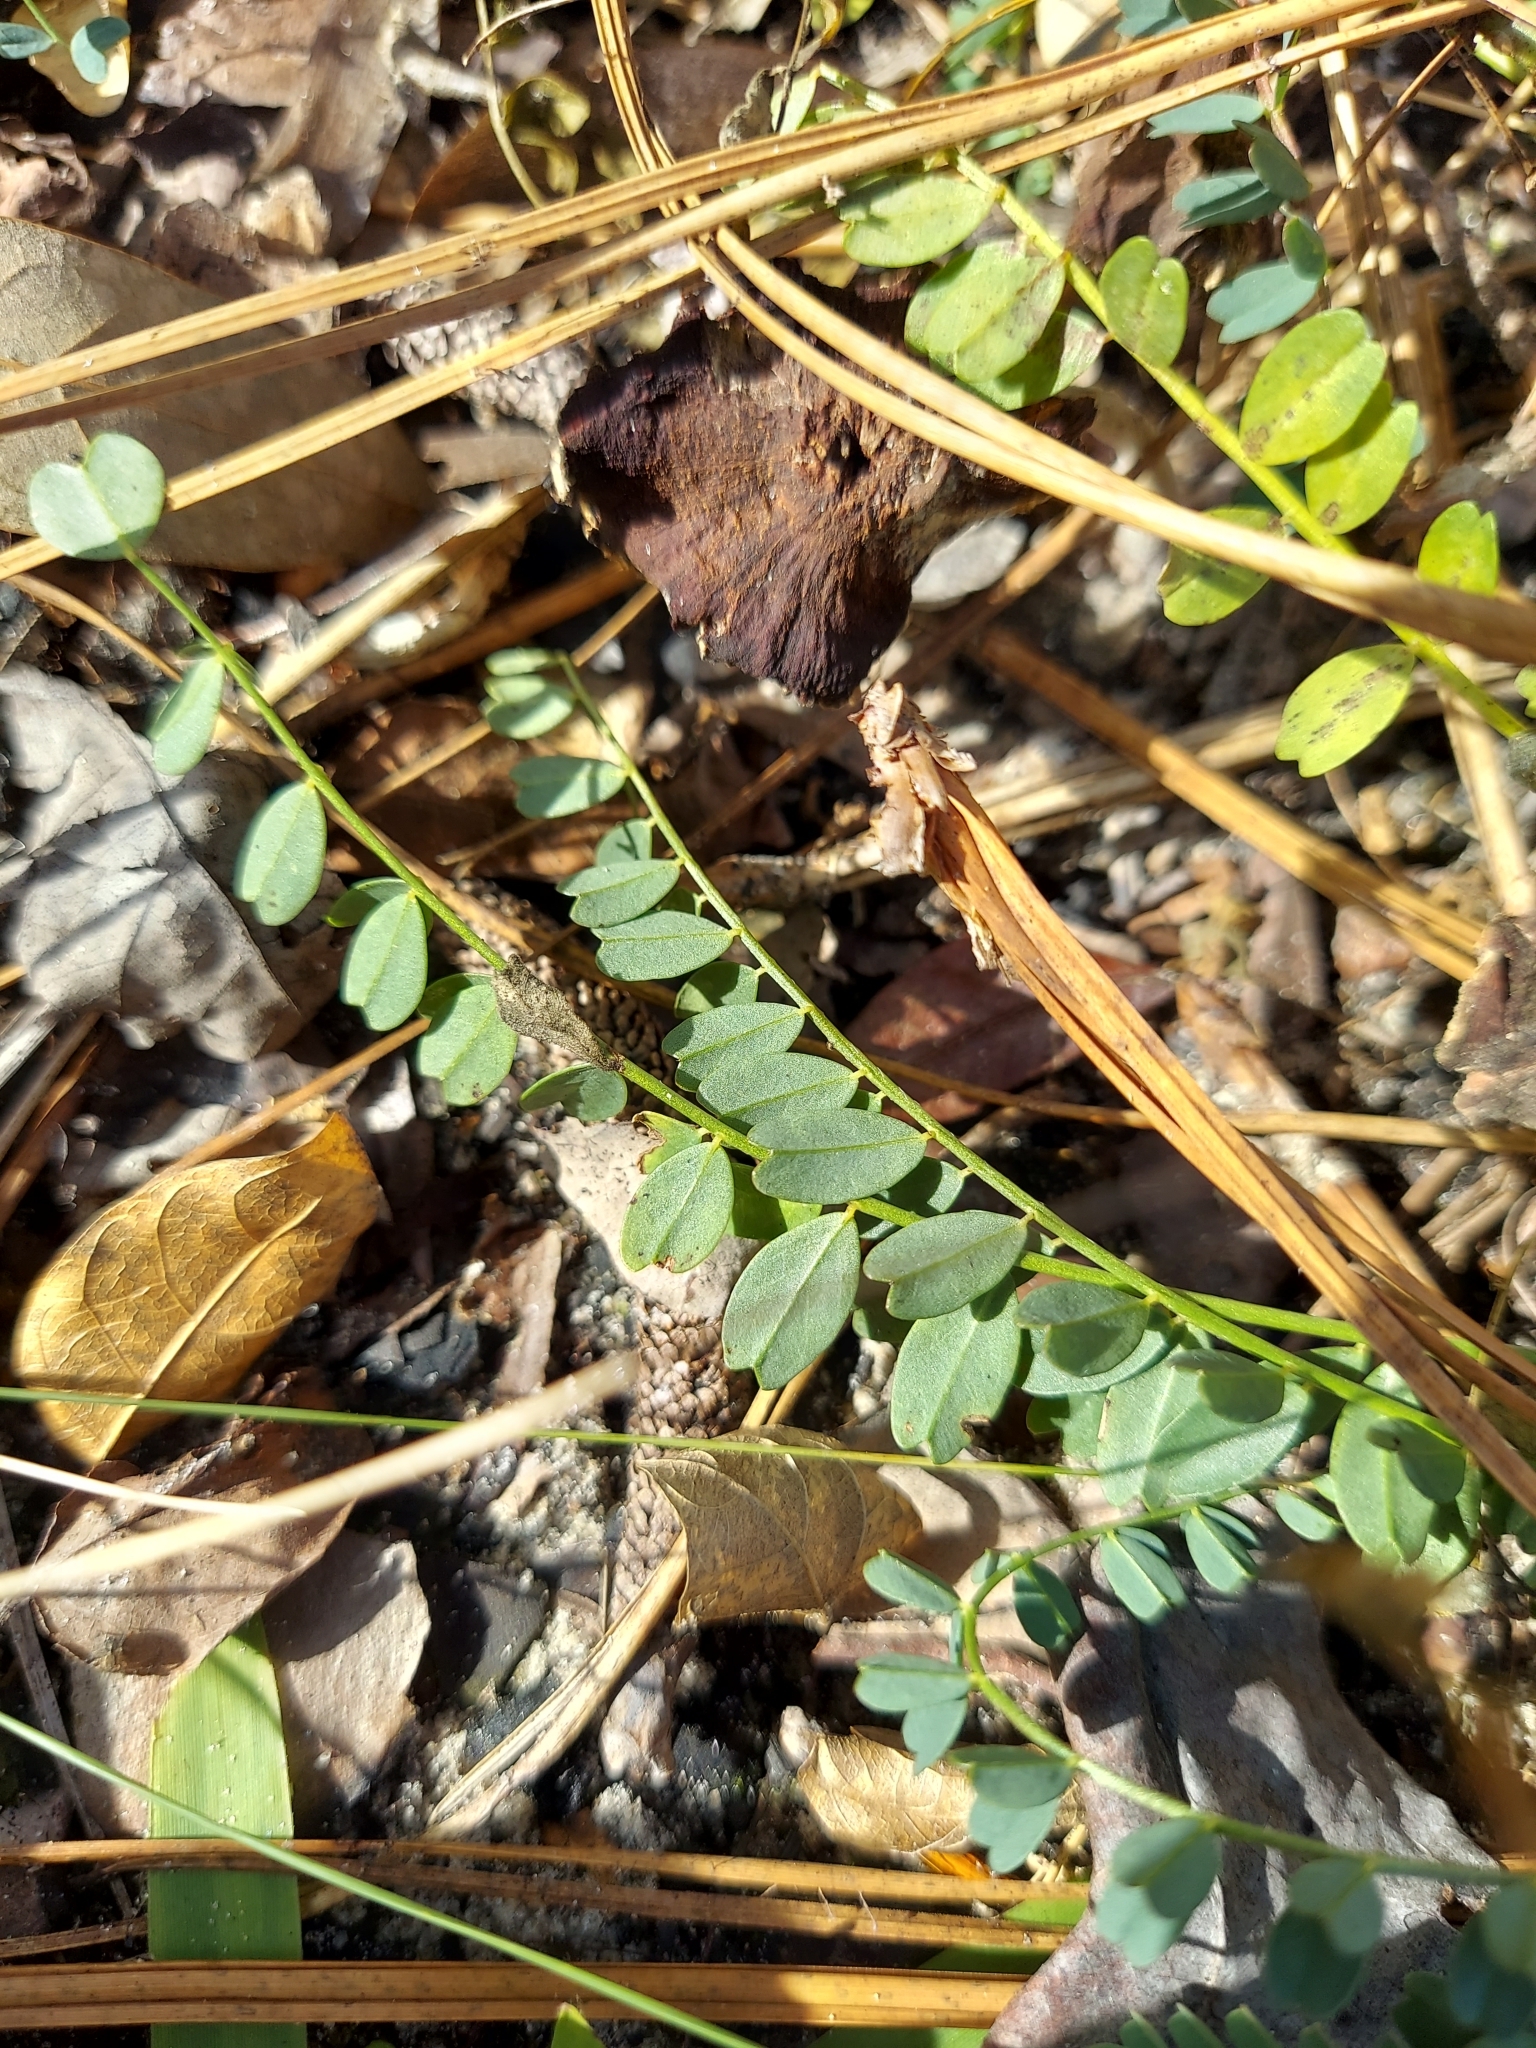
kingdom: Plantae
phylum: Tracheophyta
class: Magnoliopsida
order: Fabales
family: Fabaceae
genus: Astragalus
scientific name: Astragalus obcordatus
